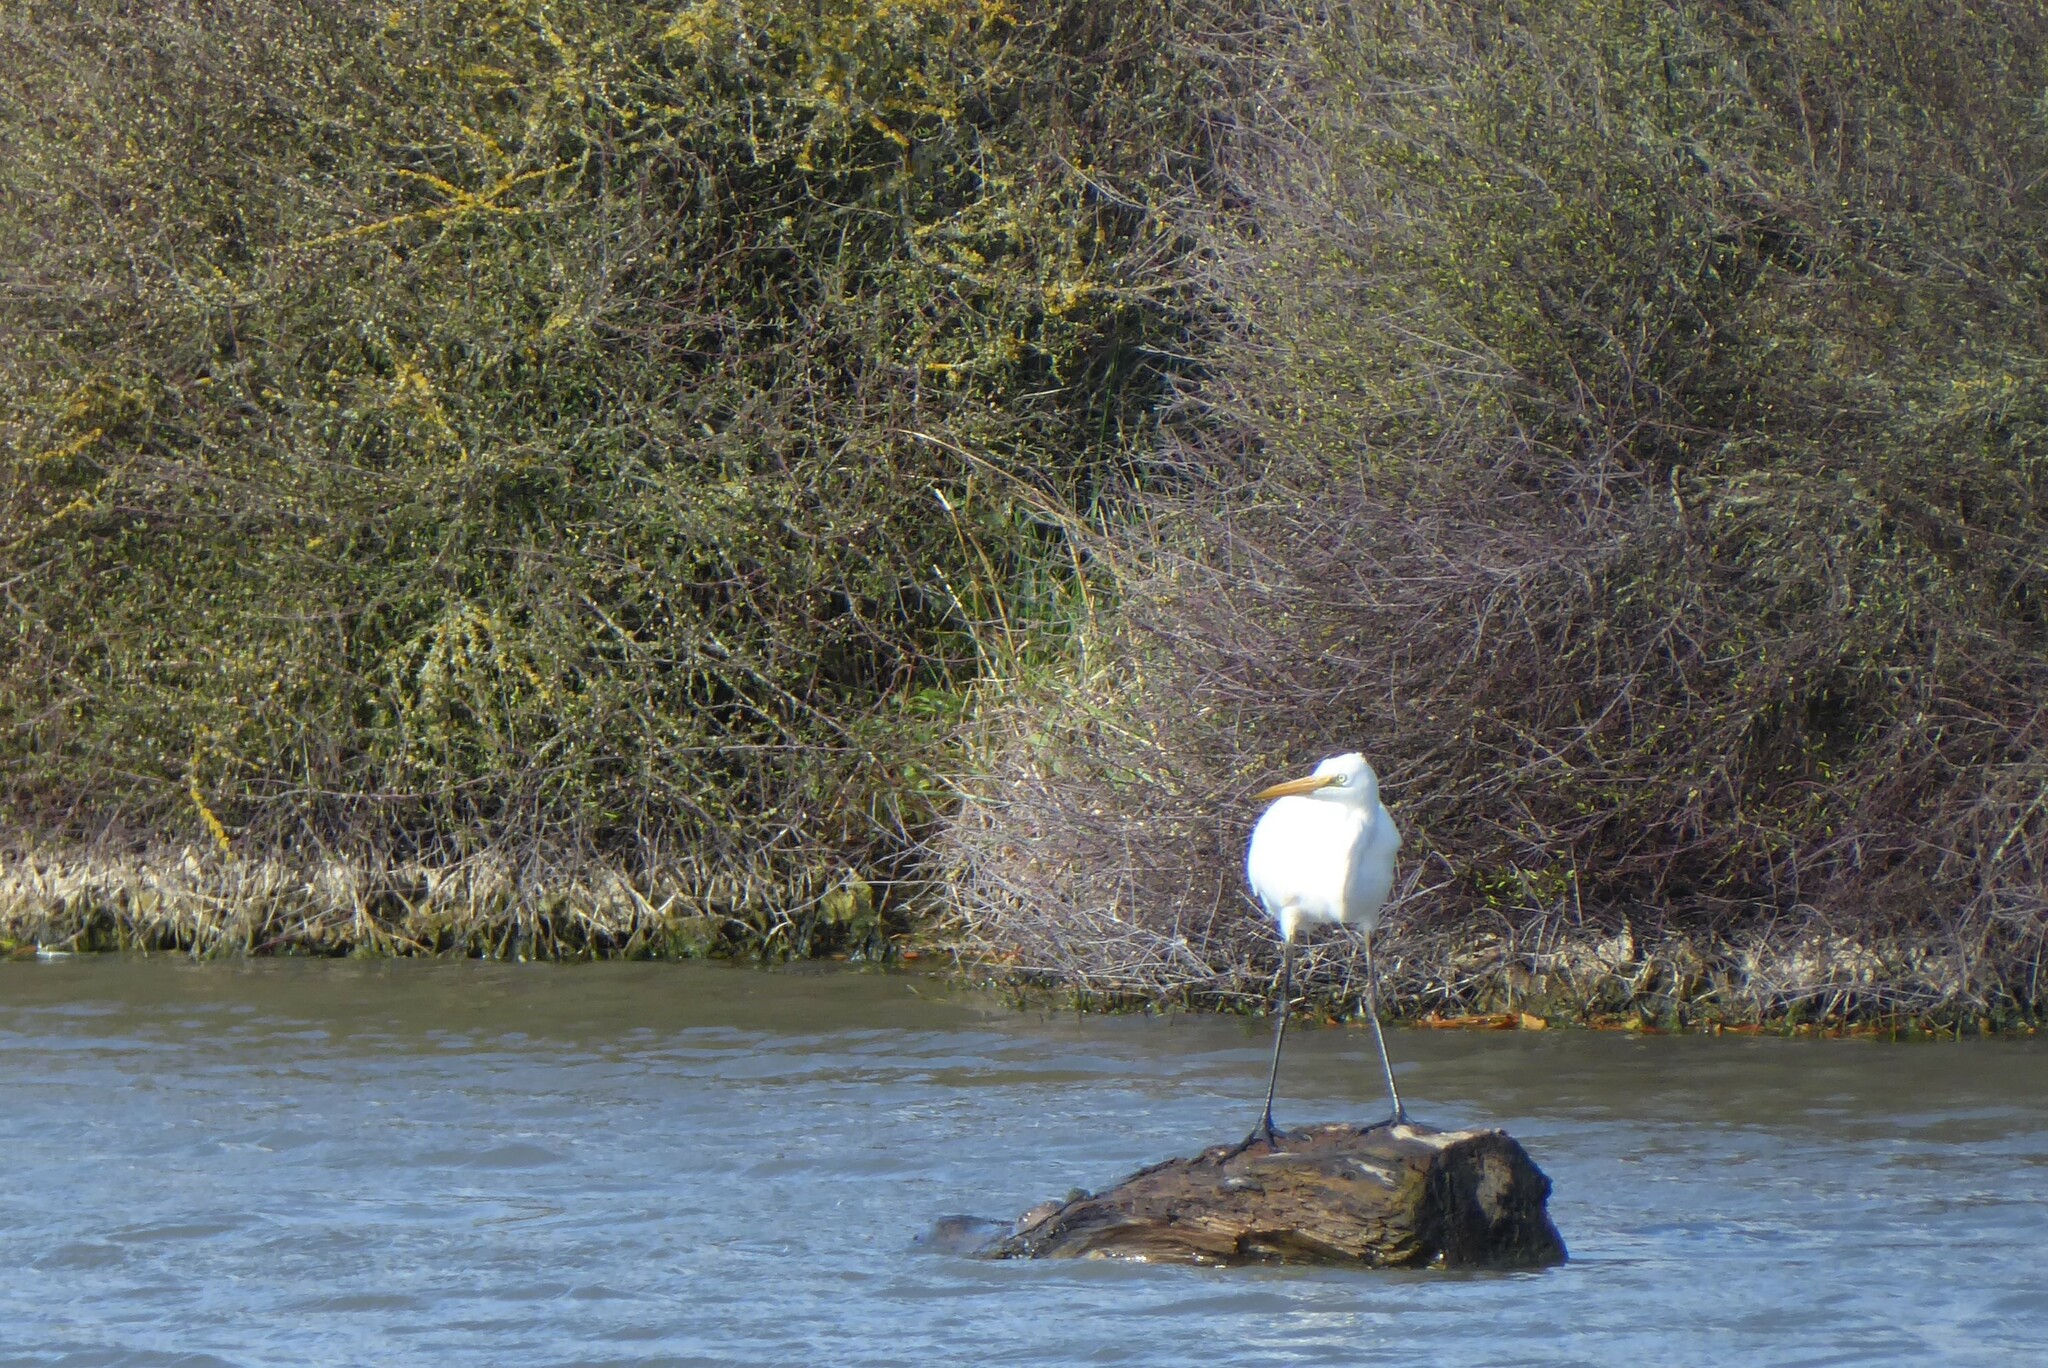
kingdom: Animalia
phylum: Chordata
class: Aves
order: Pelecaniformes
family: Ardeidae
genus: Ardea
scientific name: Ardea modesta
